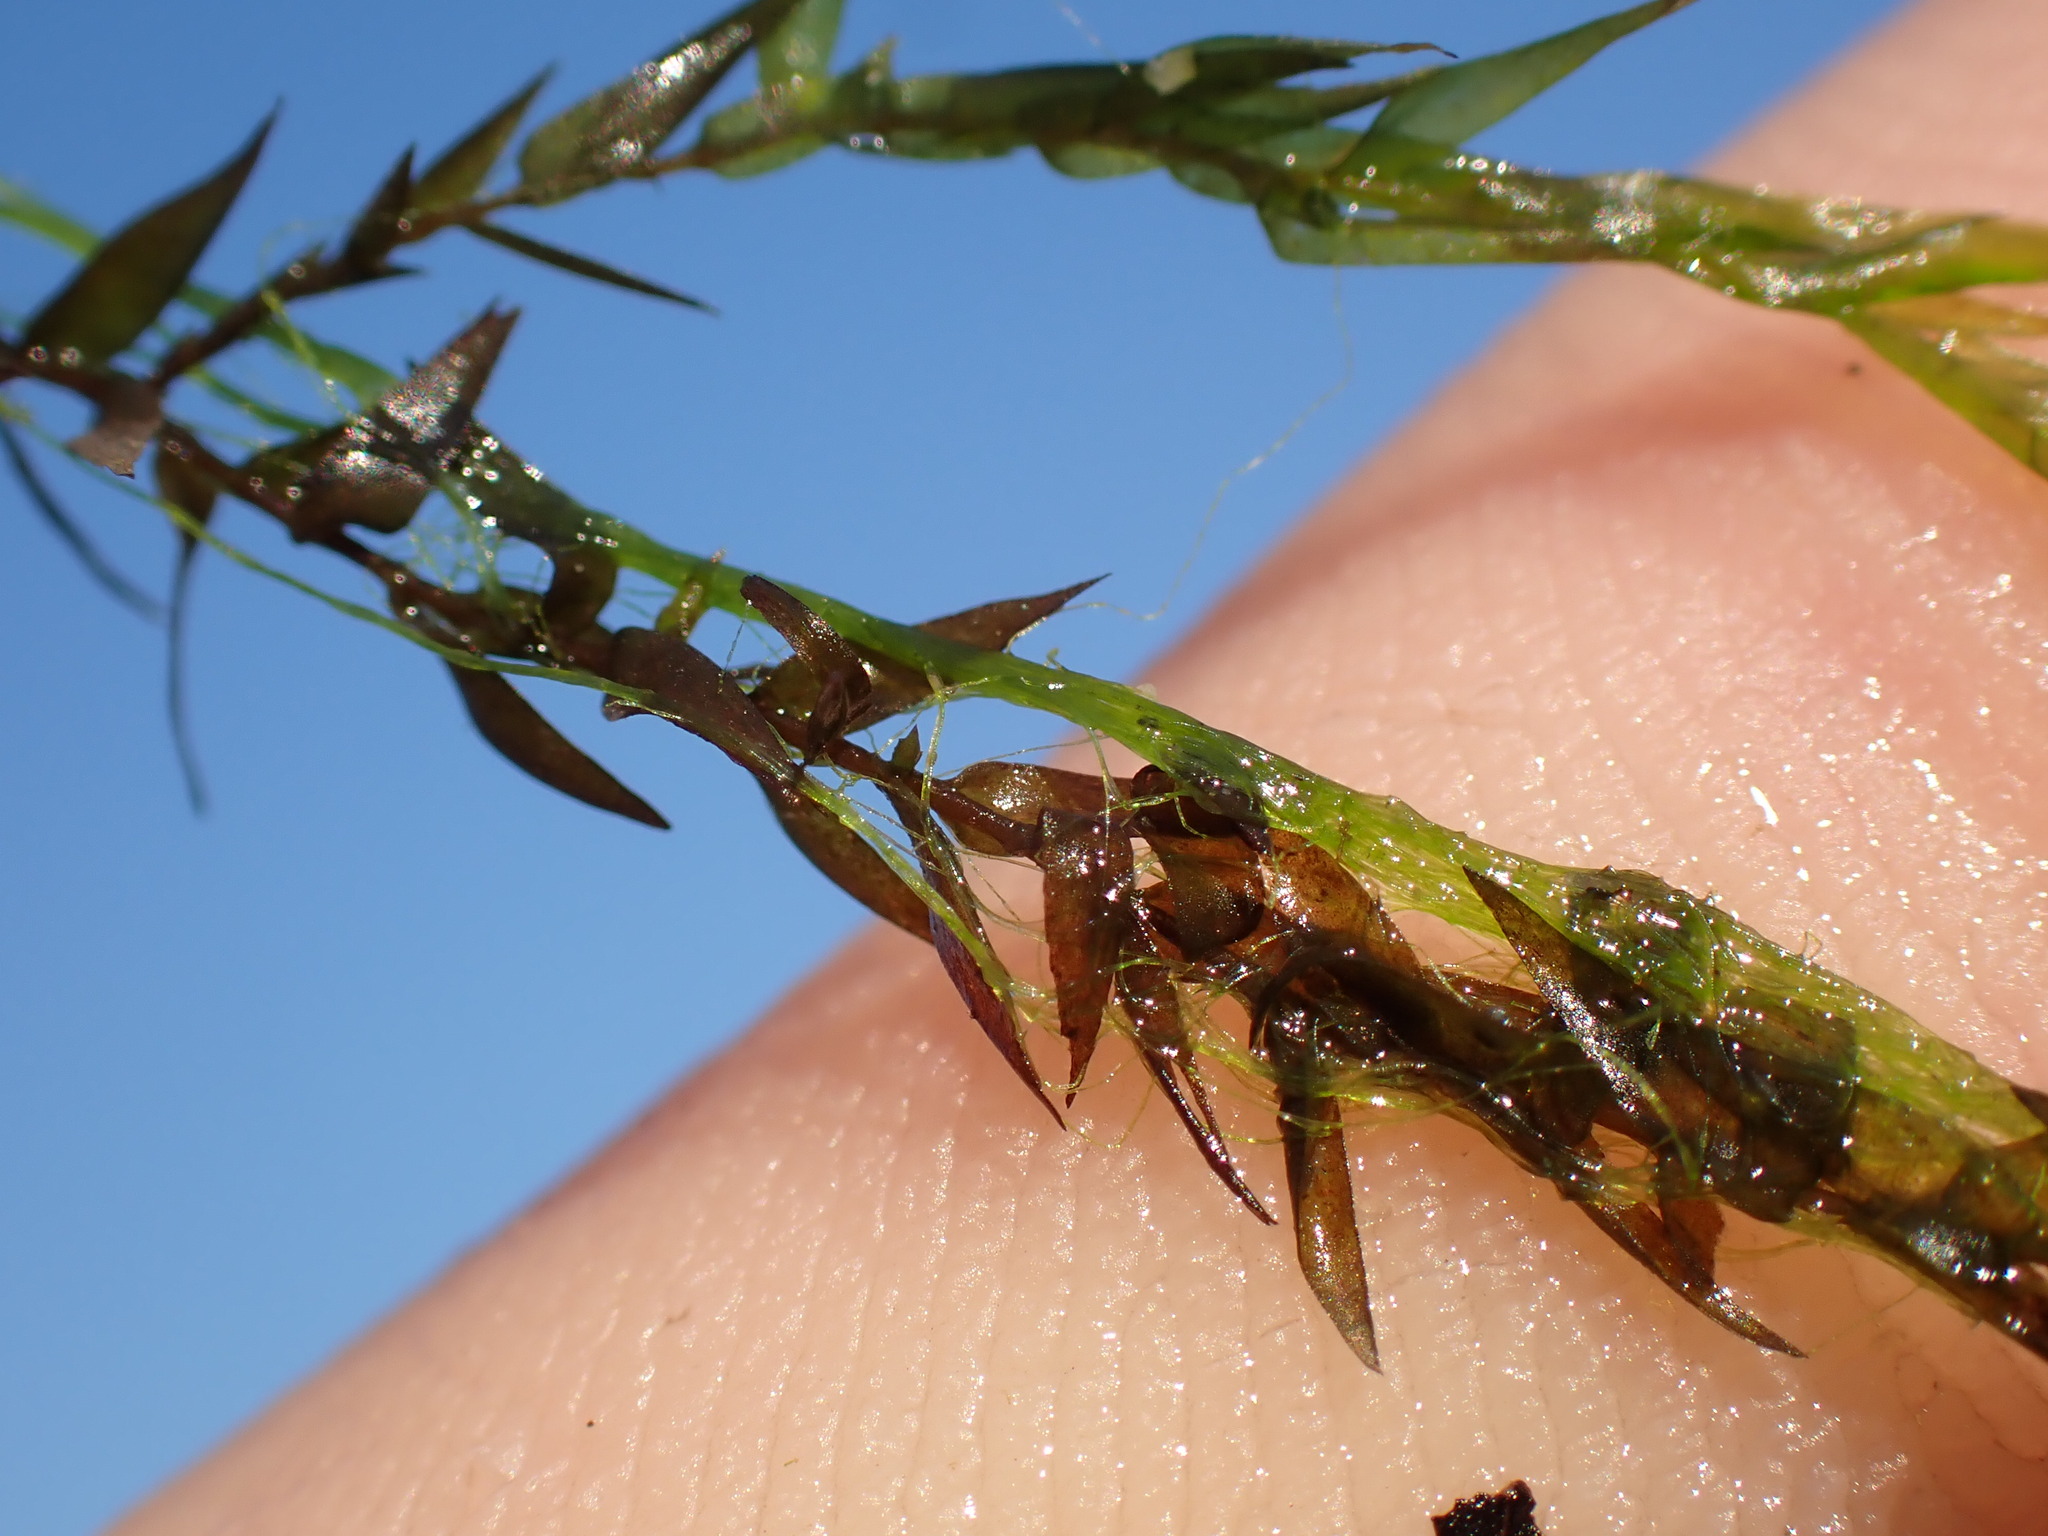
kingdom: Plantae
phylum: Bryophyta
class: Bryopsida
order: Hypnales
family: Amblystegiaceae
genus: Leptodictyum
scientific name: Leptodictyum riparium
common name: Riparian feather moss
